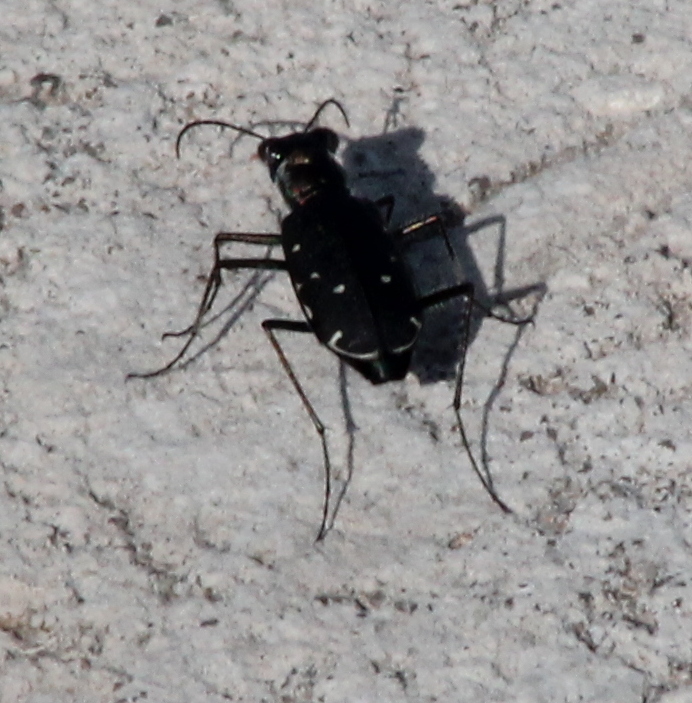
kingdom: Animalia
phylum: Arthropoda
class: Insecta
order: Coleoptera
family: Carabidae
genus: Cicindela
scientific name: Cicindela punctulata
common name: Punctured tiger beetle
